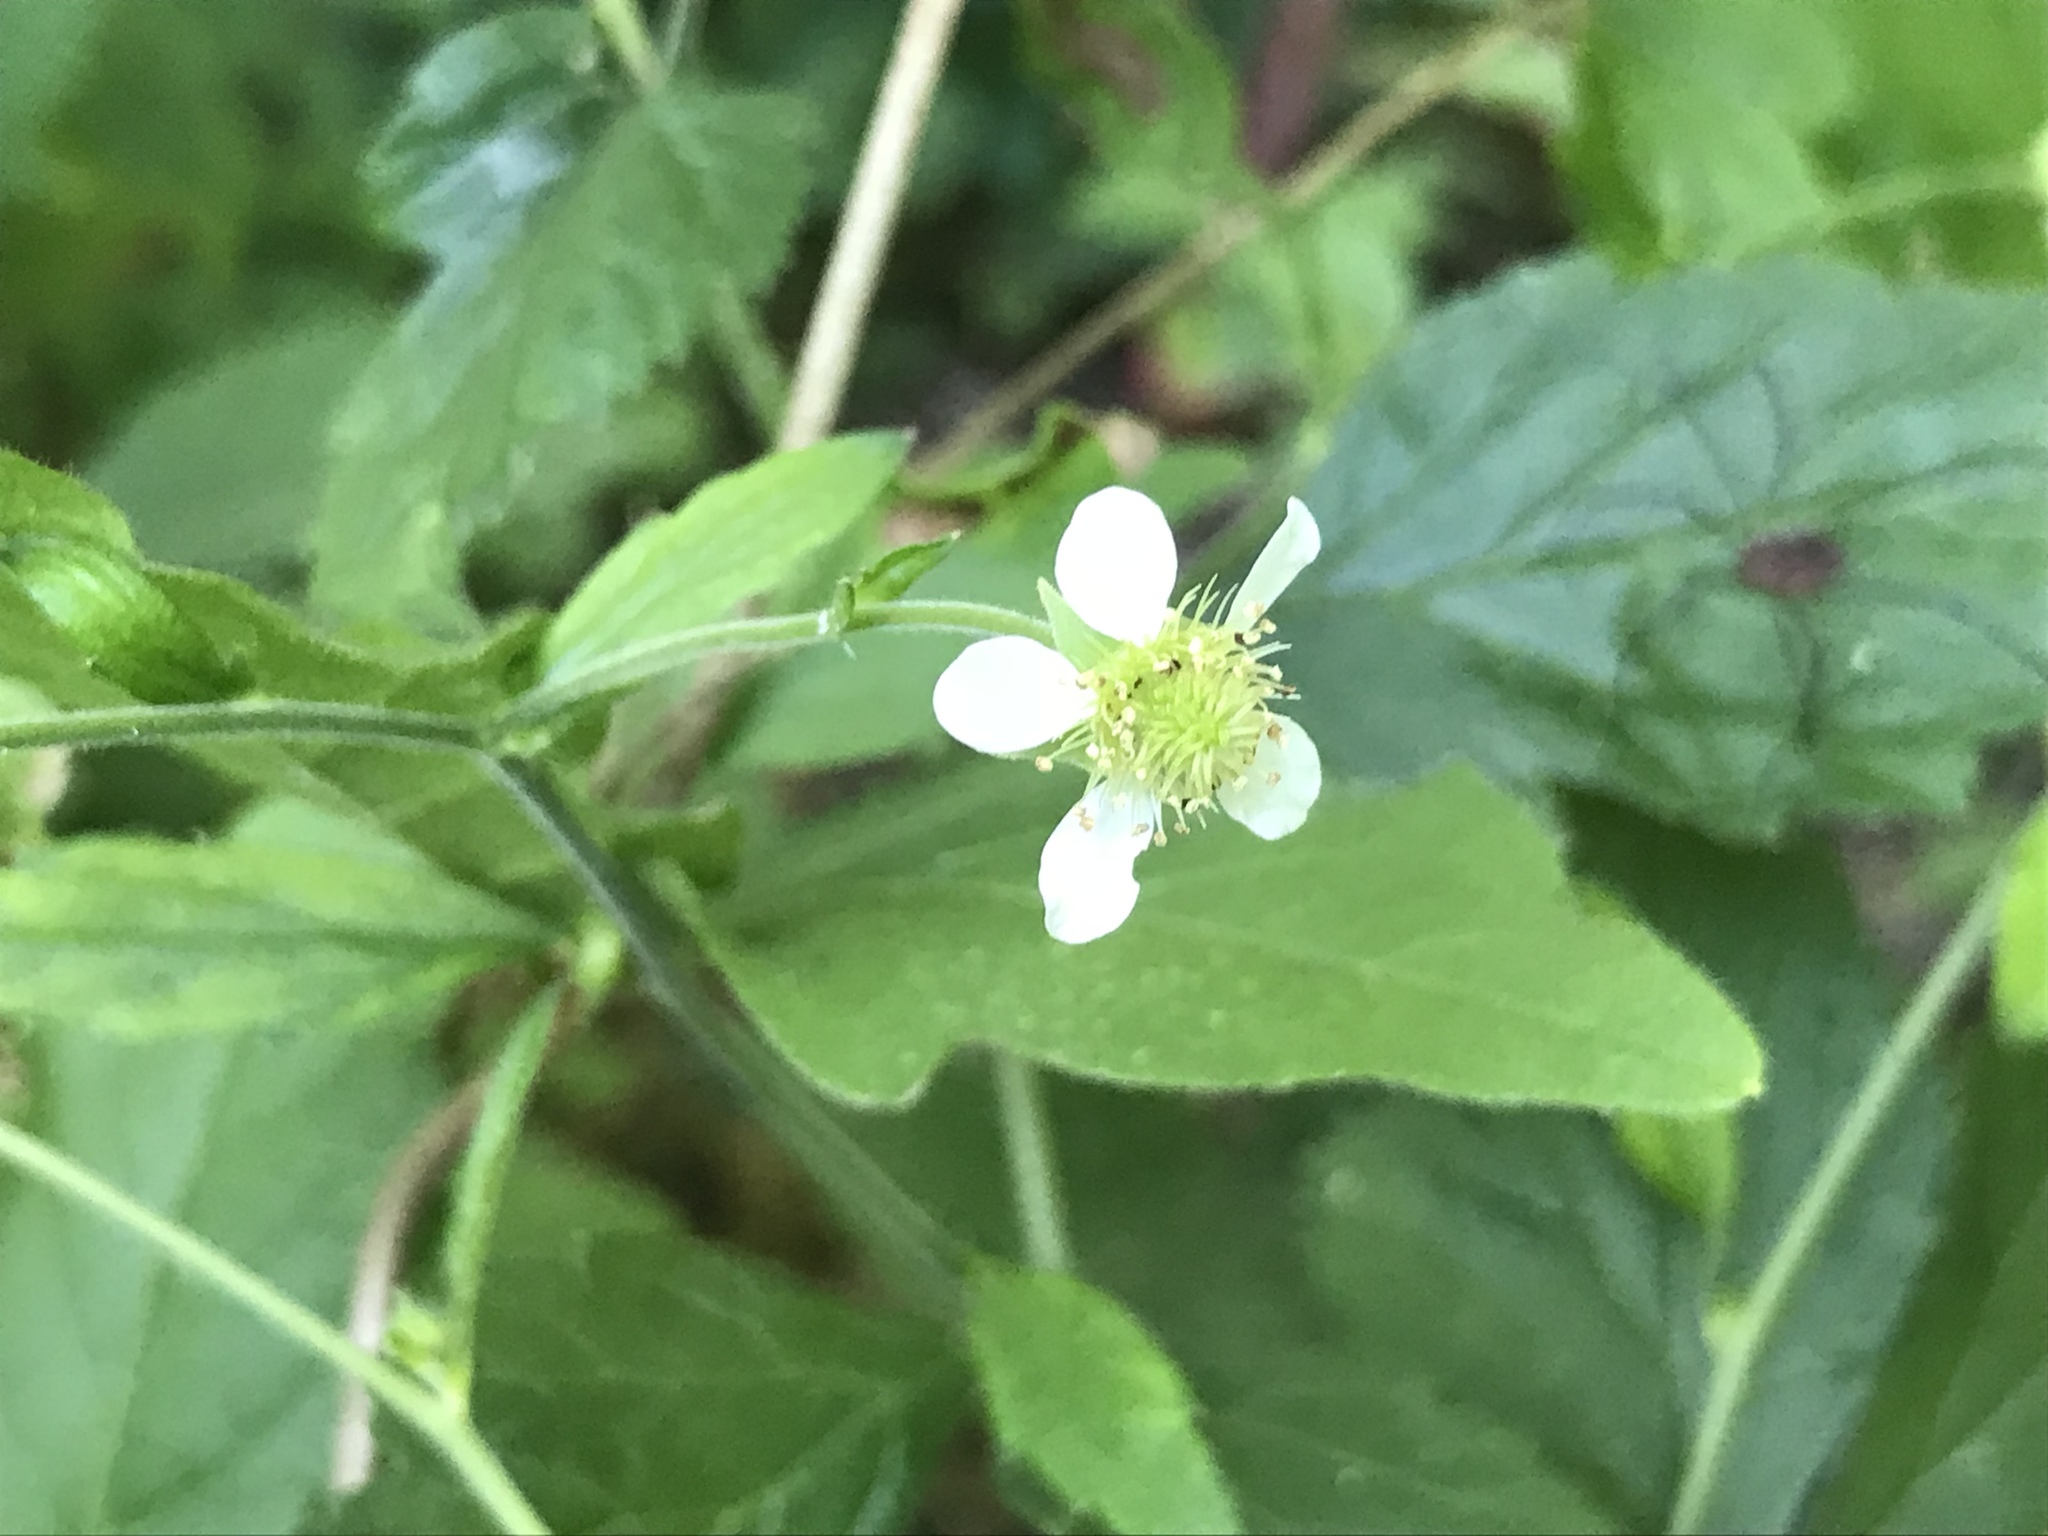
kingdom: Plantae
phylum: Tracheophyta
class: Magnoliopsida
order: Rosales
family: Rosaceae
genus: Geum
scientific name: Geum canadense
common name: White avens
